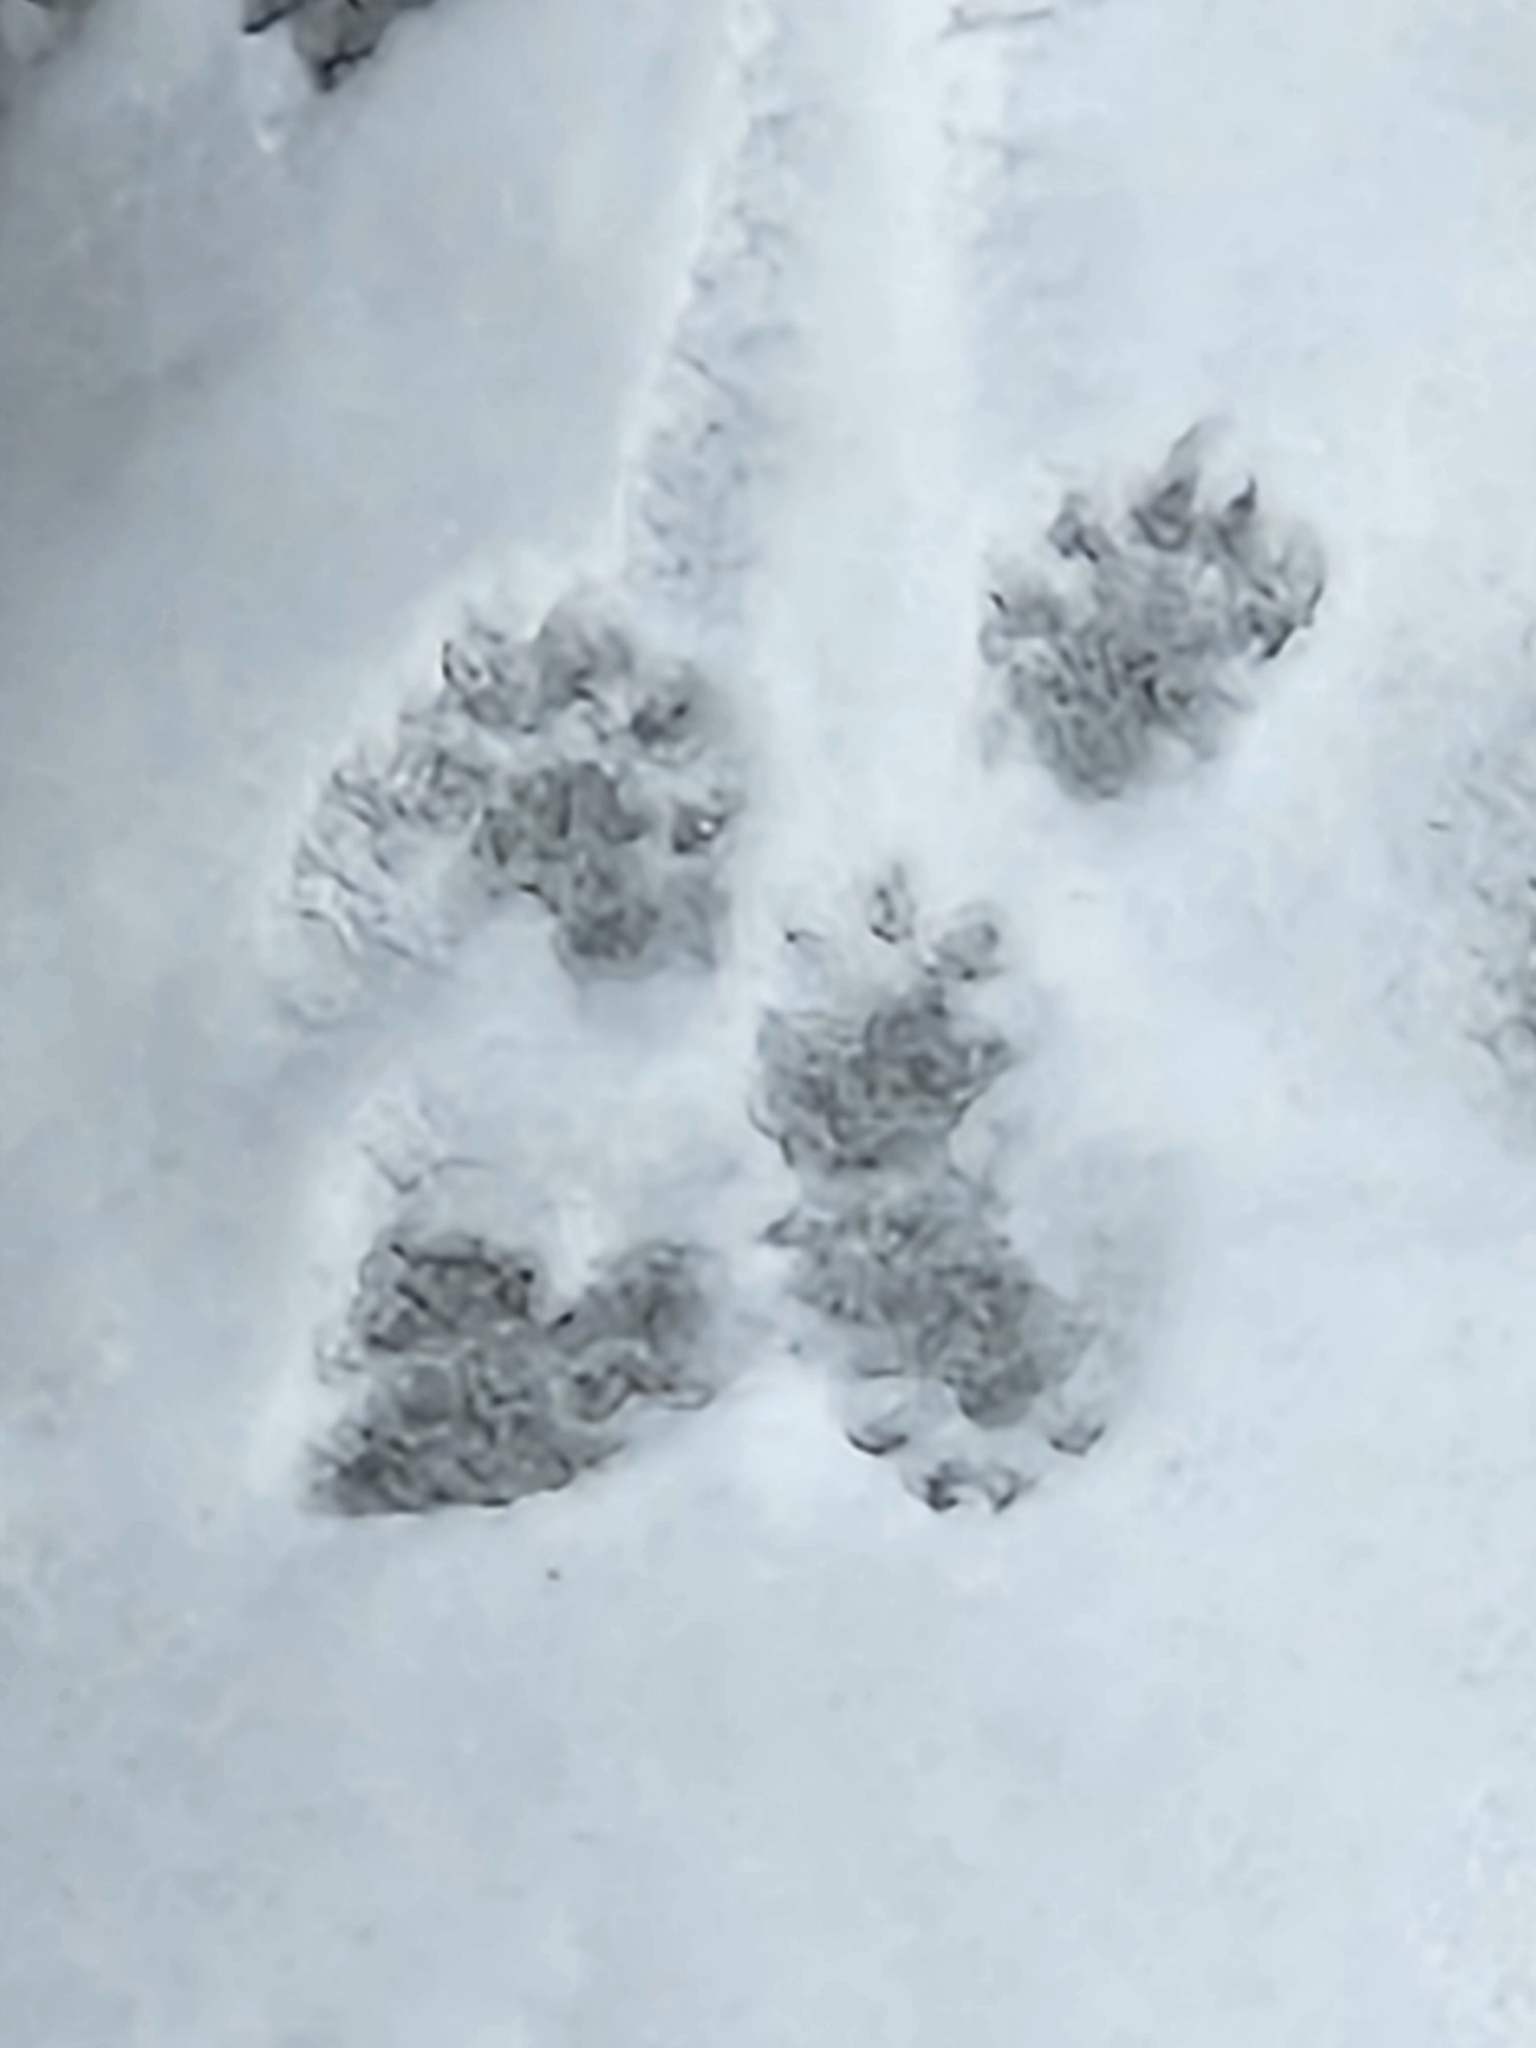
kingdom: Animalia
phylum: Chordata
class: Mammalia
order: Carnivora
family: Mustelidae
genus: Mustela
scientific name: Mustela
